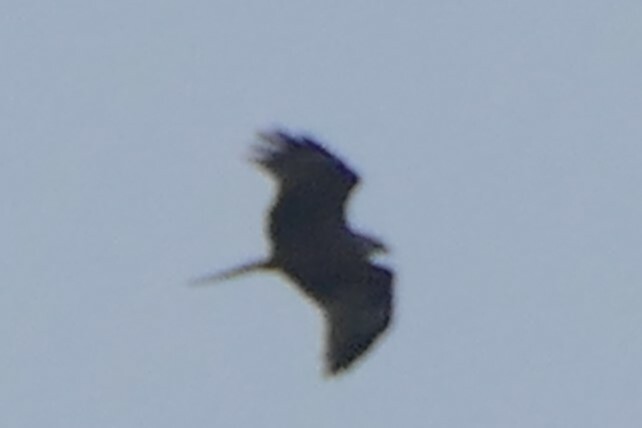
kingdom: Animalia
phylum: Chordata
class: Aves
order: Accipitriformes
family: Accipitridae
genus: Milvus
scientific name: Milvus migrans
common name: Black kite
